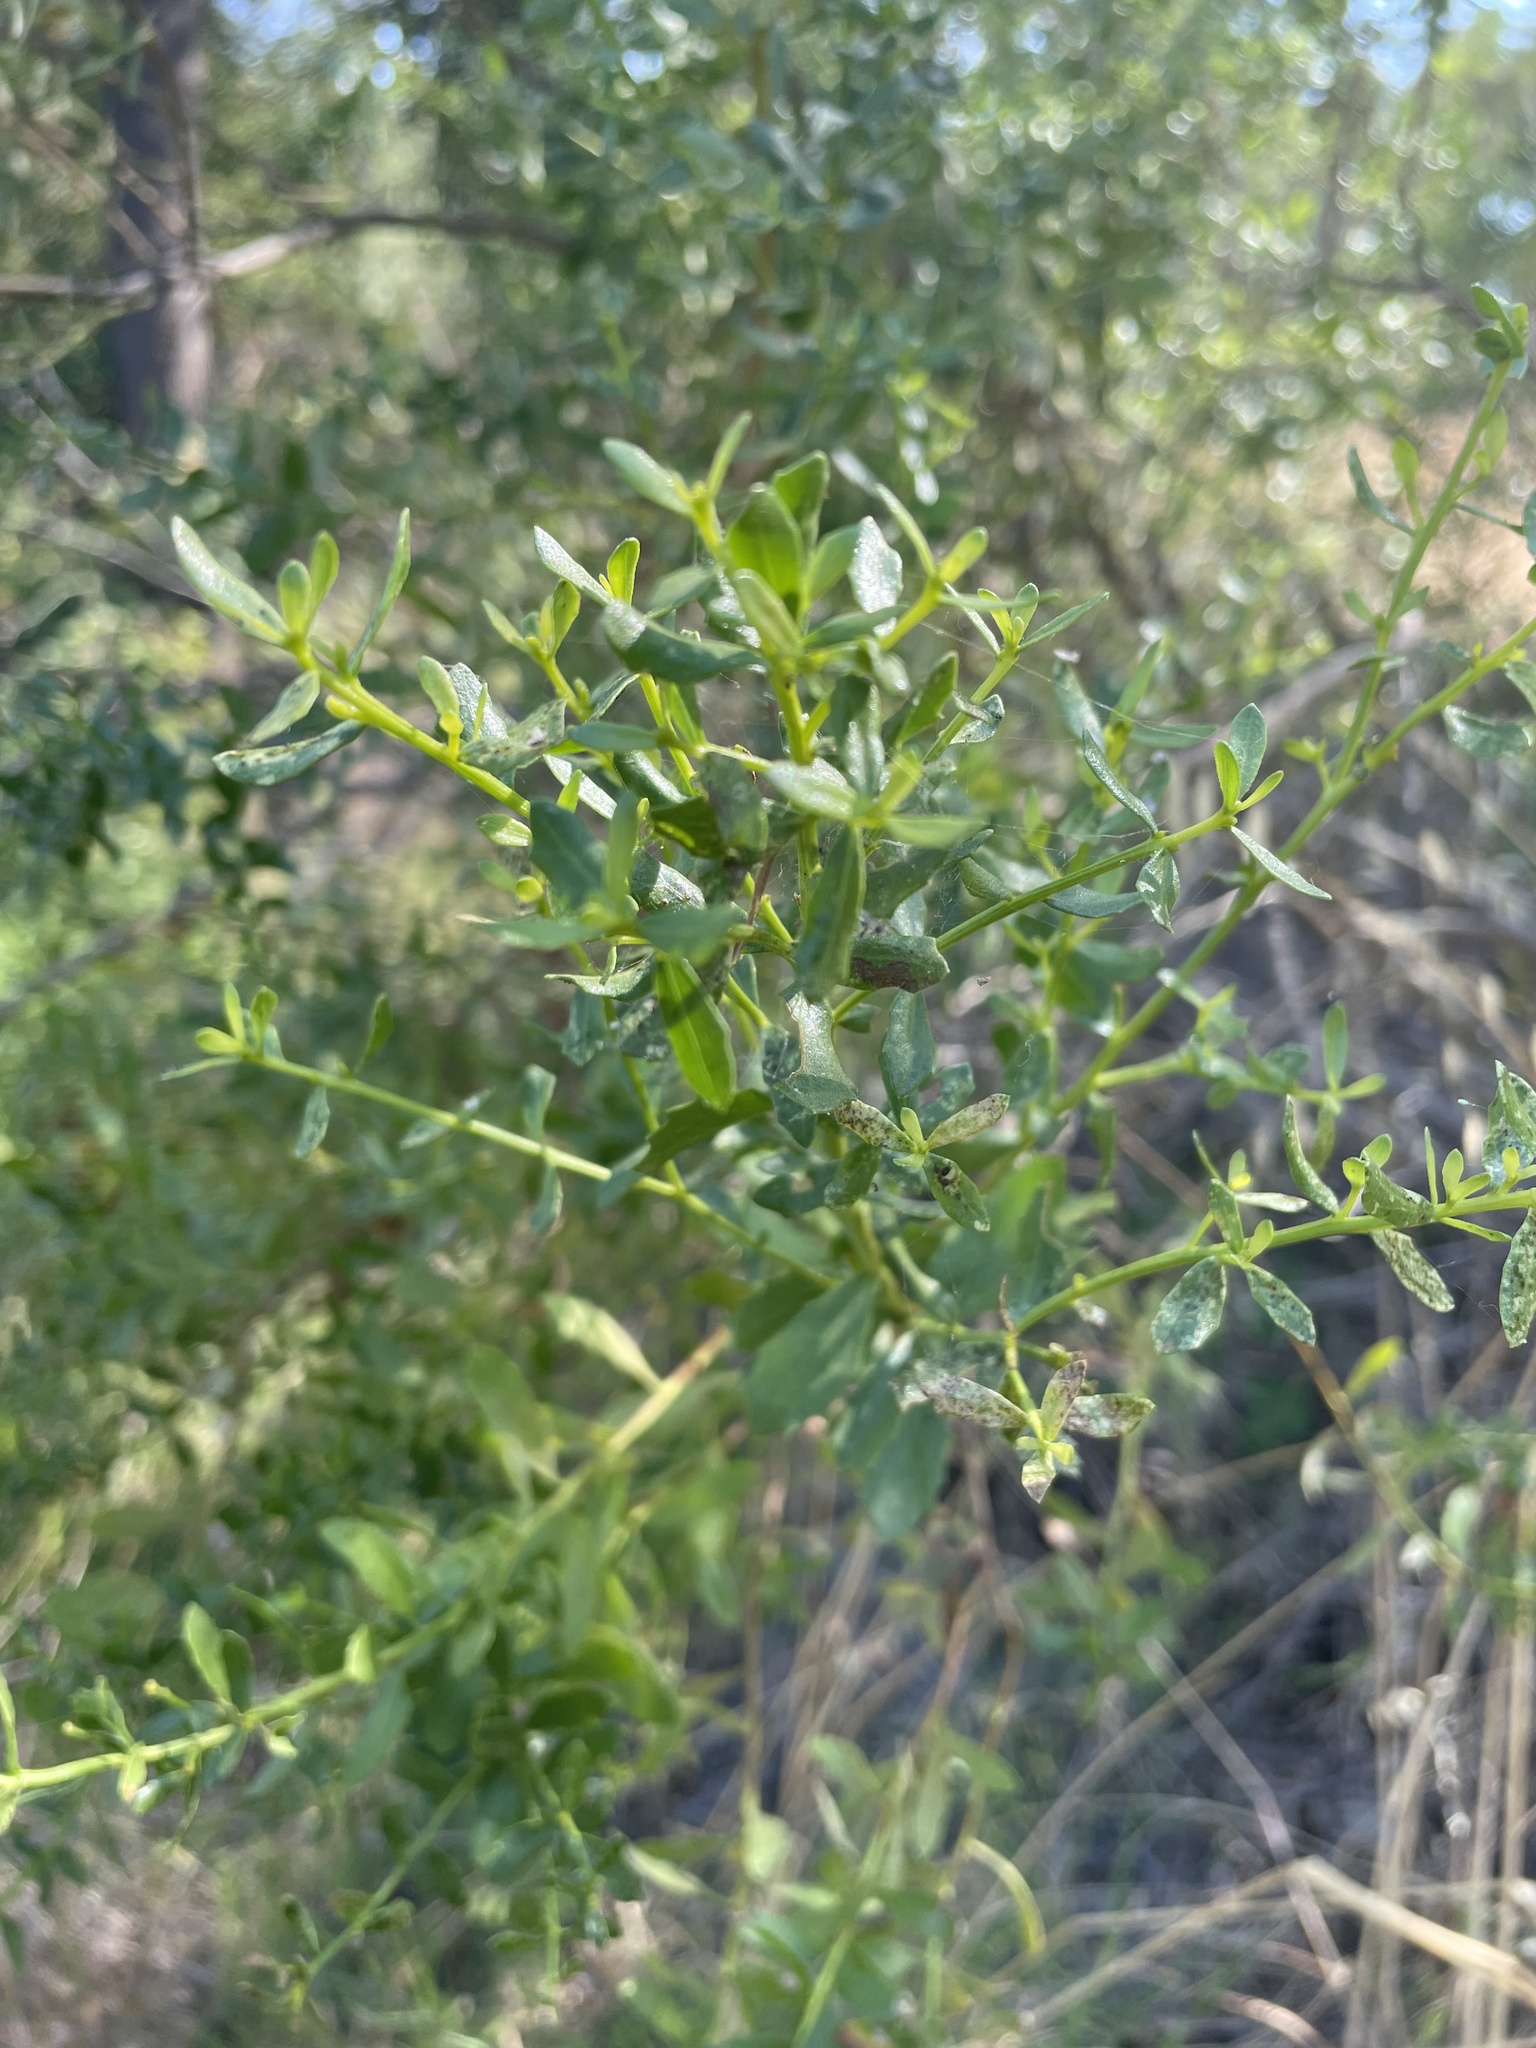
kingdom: Plantae
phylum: Tracheophyta
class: Magnoliopsida
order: Asterales
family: Asteraceae
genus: Baccharis
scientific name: Baccharis pilularis
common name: Coyotebrush
